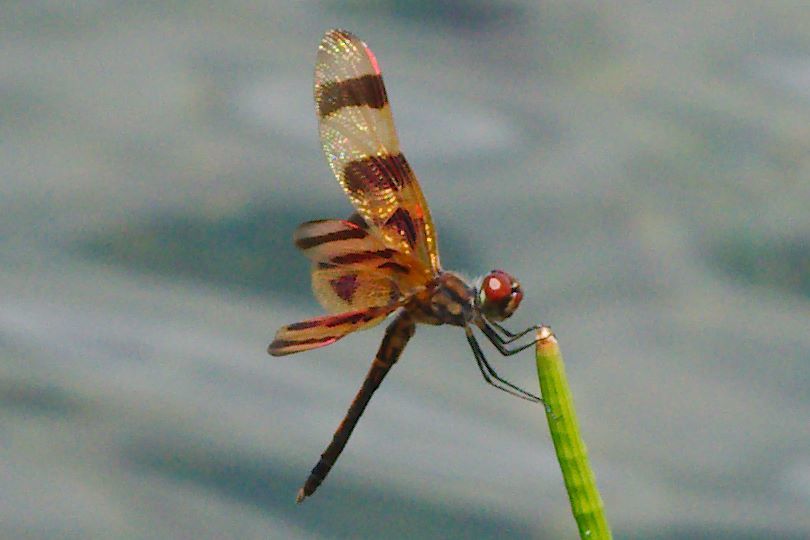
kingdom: Animalia
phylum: Arthropoda
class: Insecta
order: Odonata
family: Libellulidae
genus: Celithemis
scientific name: Celithemis eponina
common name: Halloween pennant
